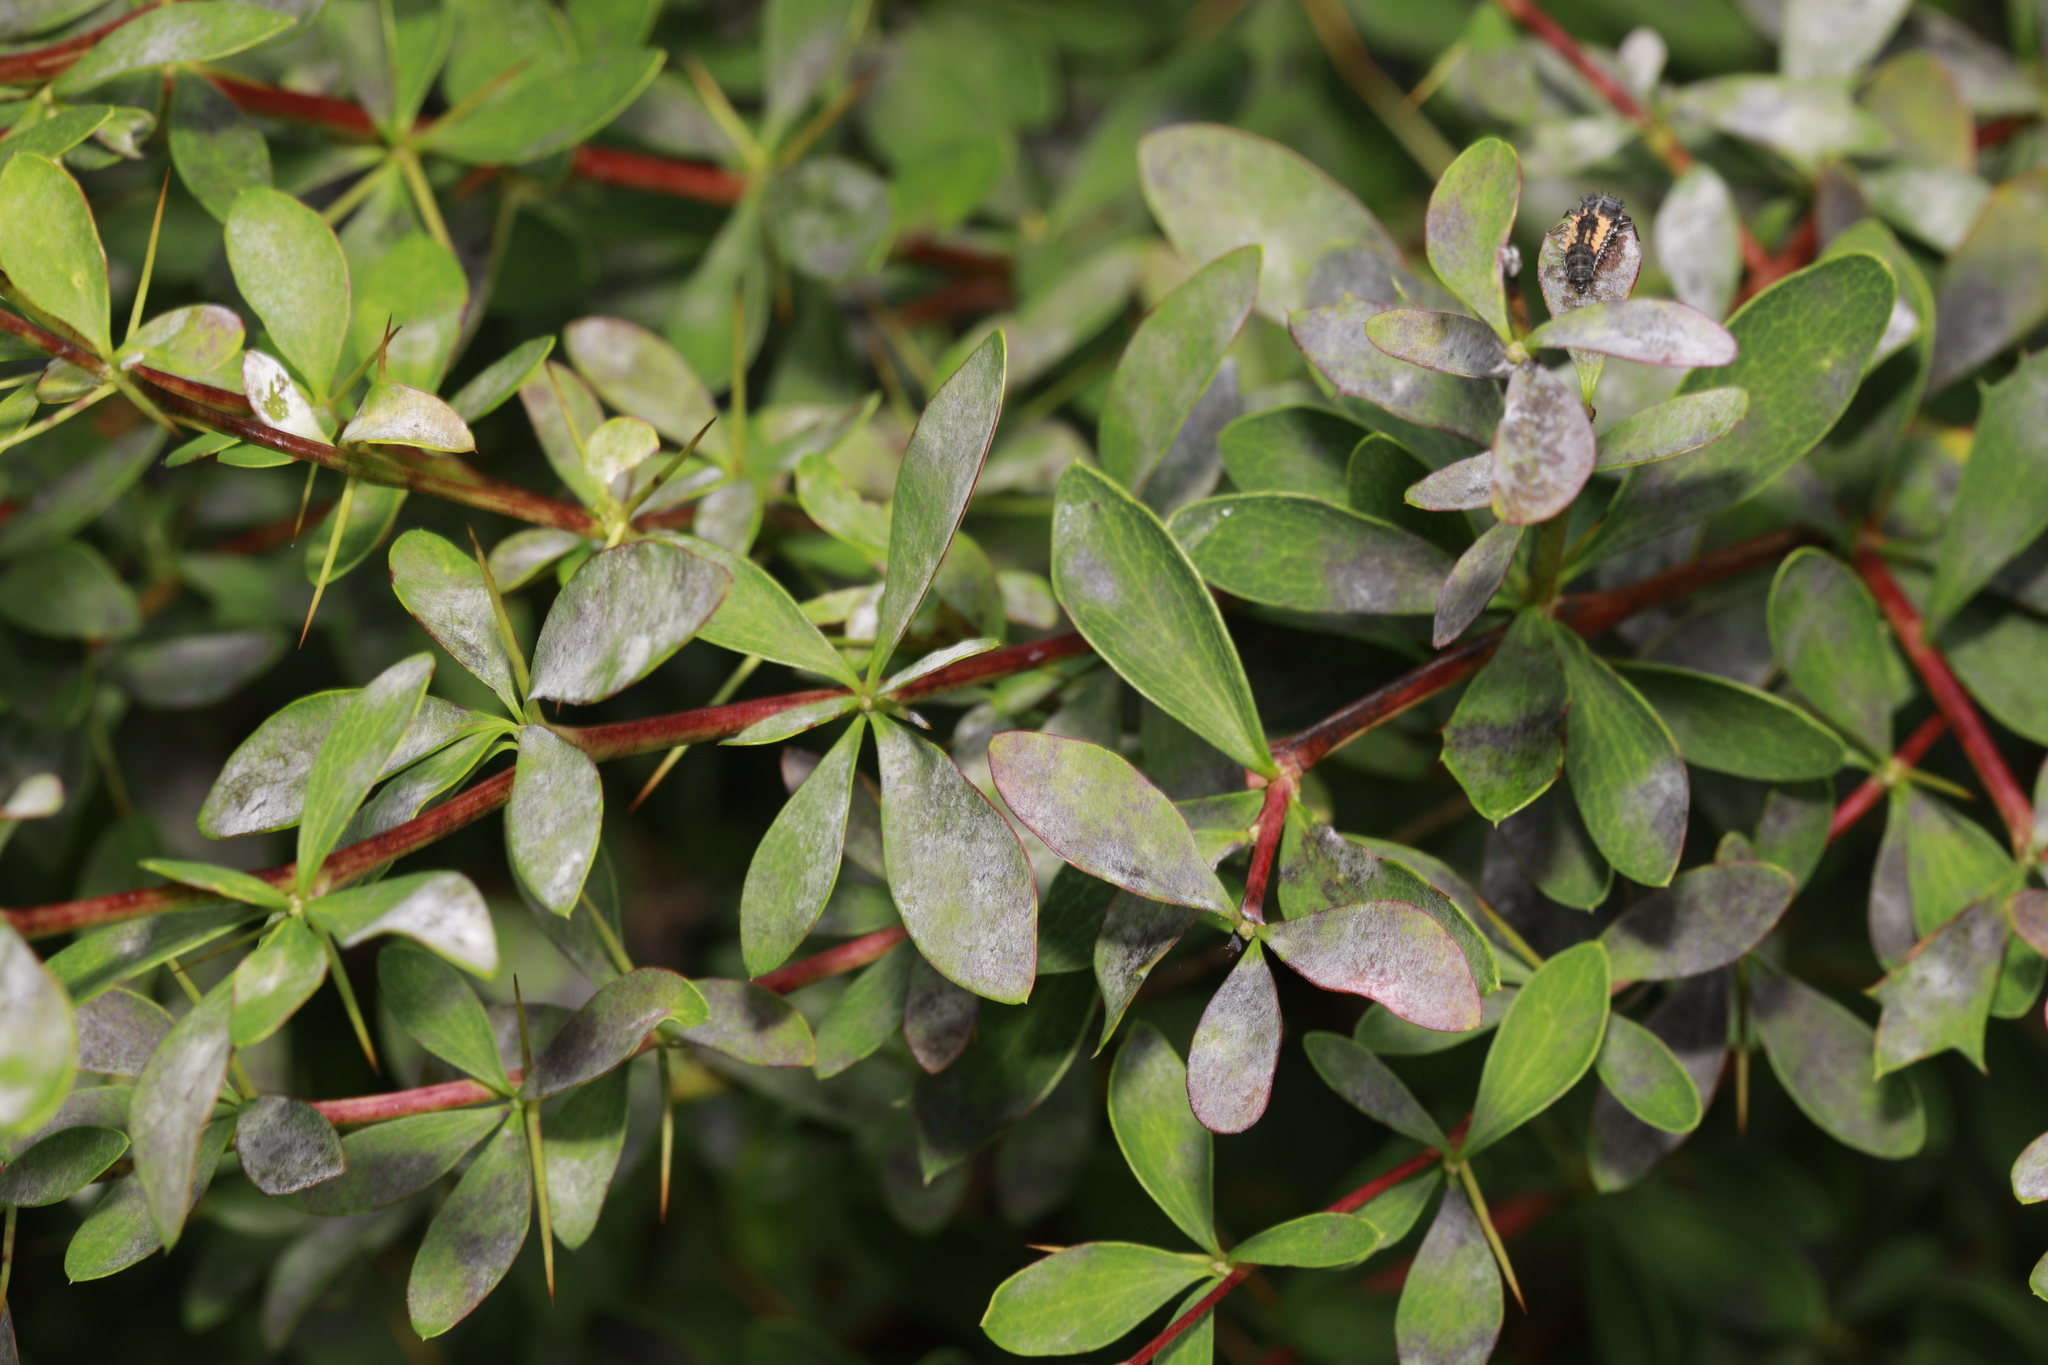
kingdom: Fungi
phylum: Ascomycota
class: Leotiomycetes
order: Helotiales
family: Erysiphaceae
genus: Erysiphe
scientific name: Erysiphe berberidis
